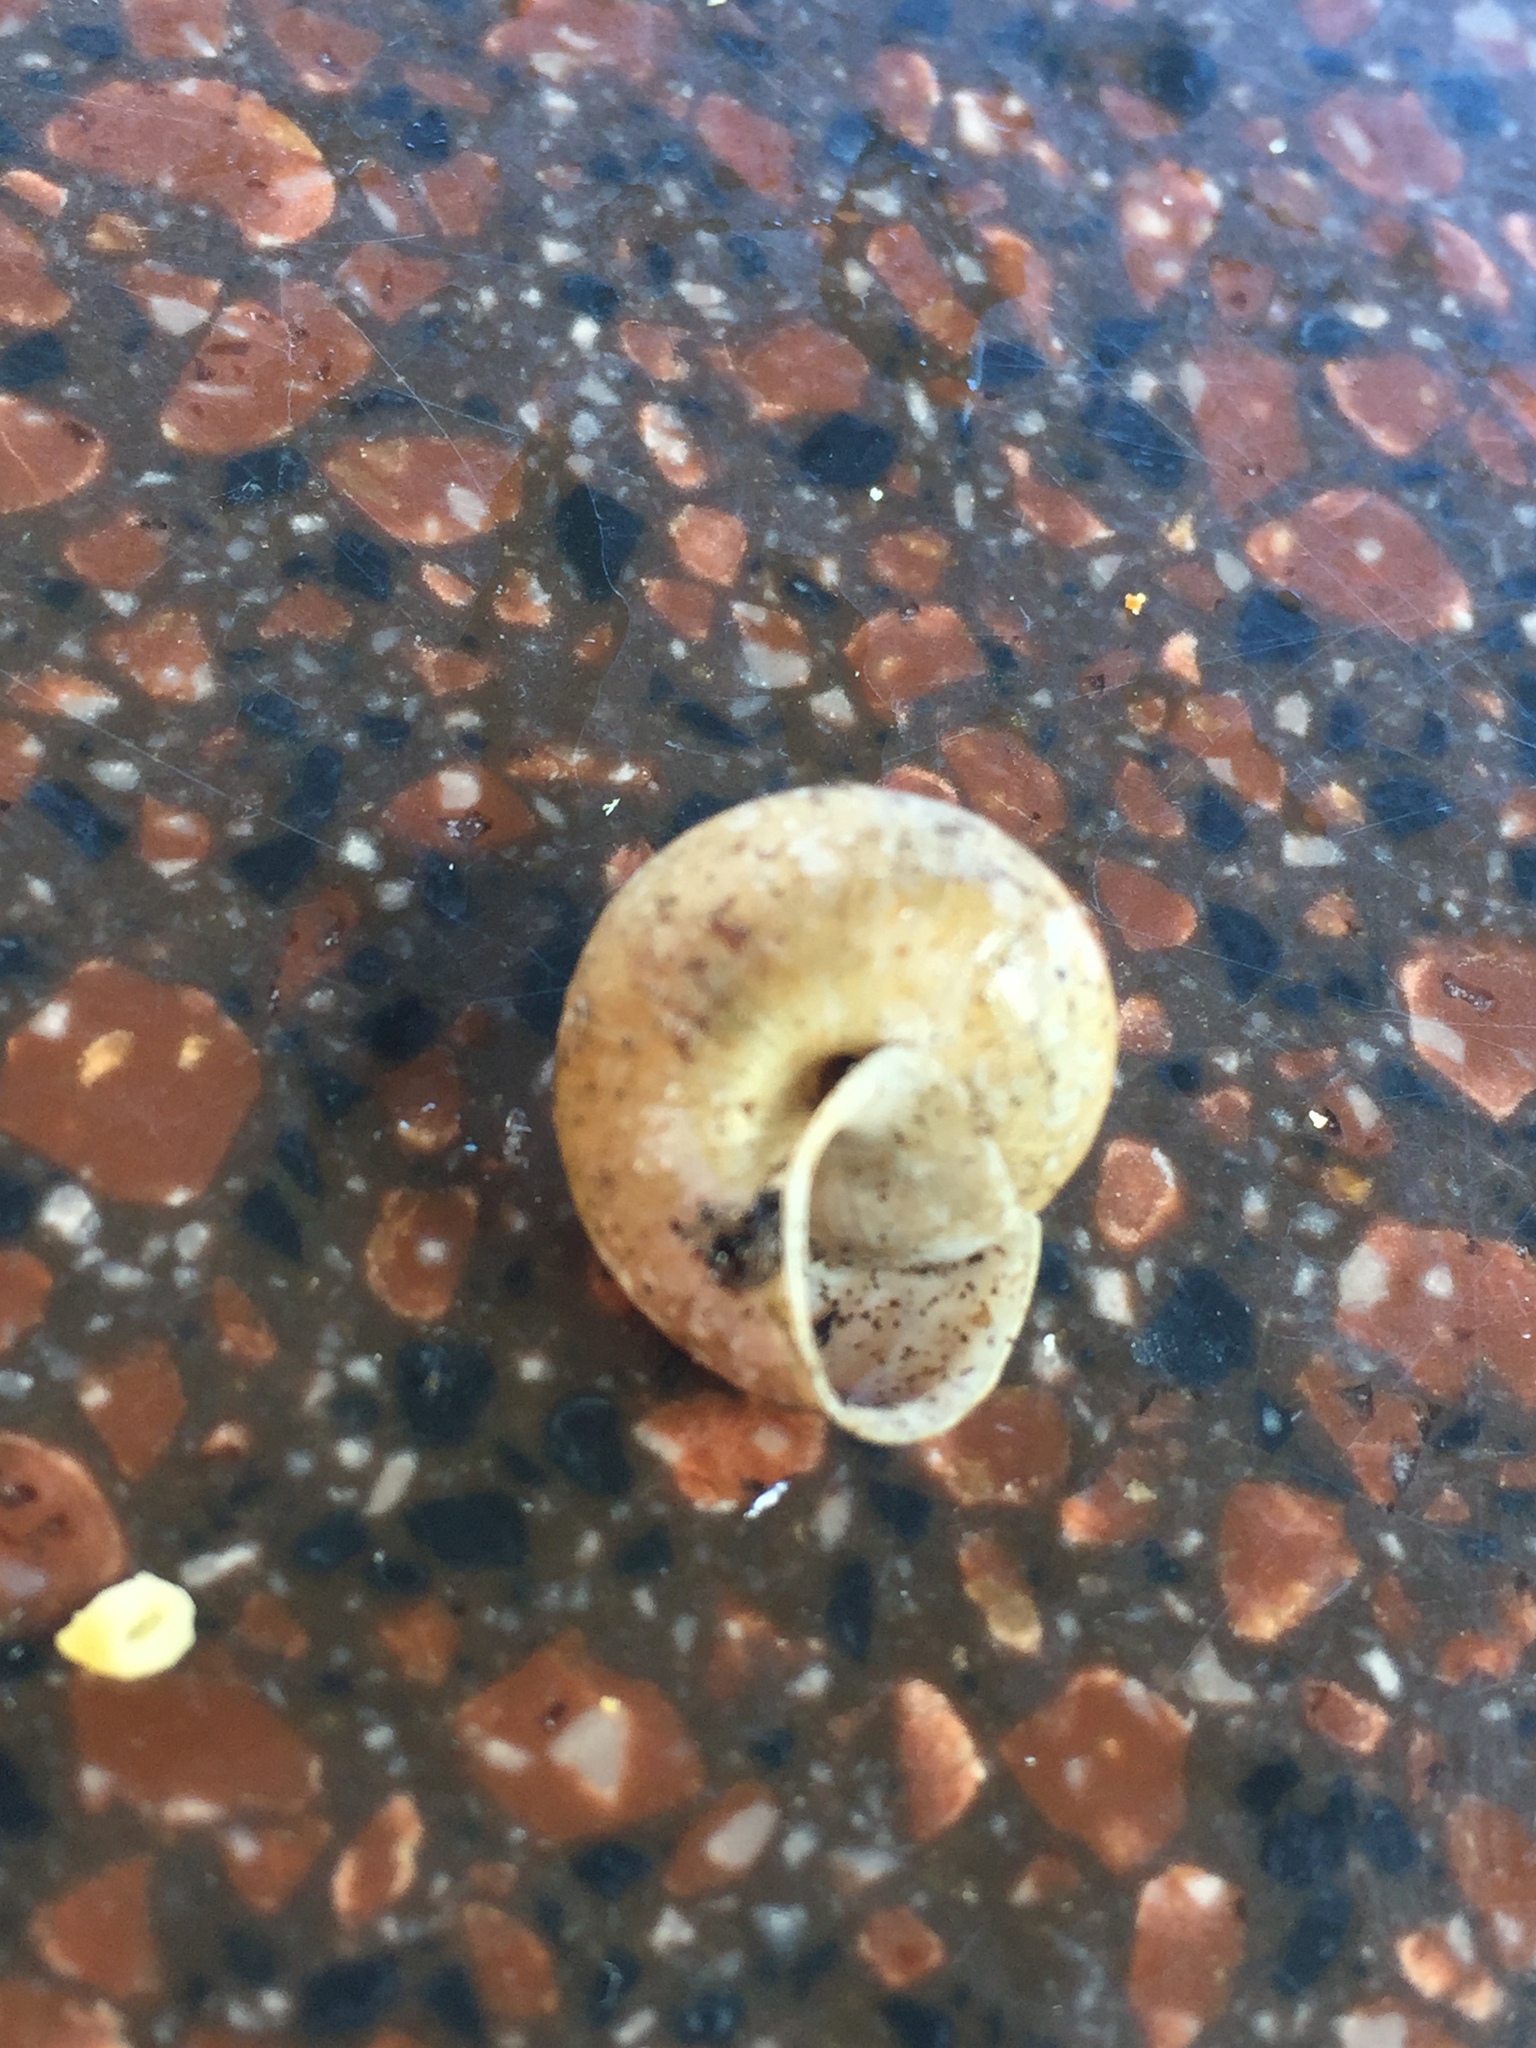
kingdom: Animalia
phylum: Mollusca
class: Gastropoda
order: Stylommatophora
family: Camaenidae
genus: Bradybaena
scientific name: Bradybaena similaris
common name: Asian trampsnail
